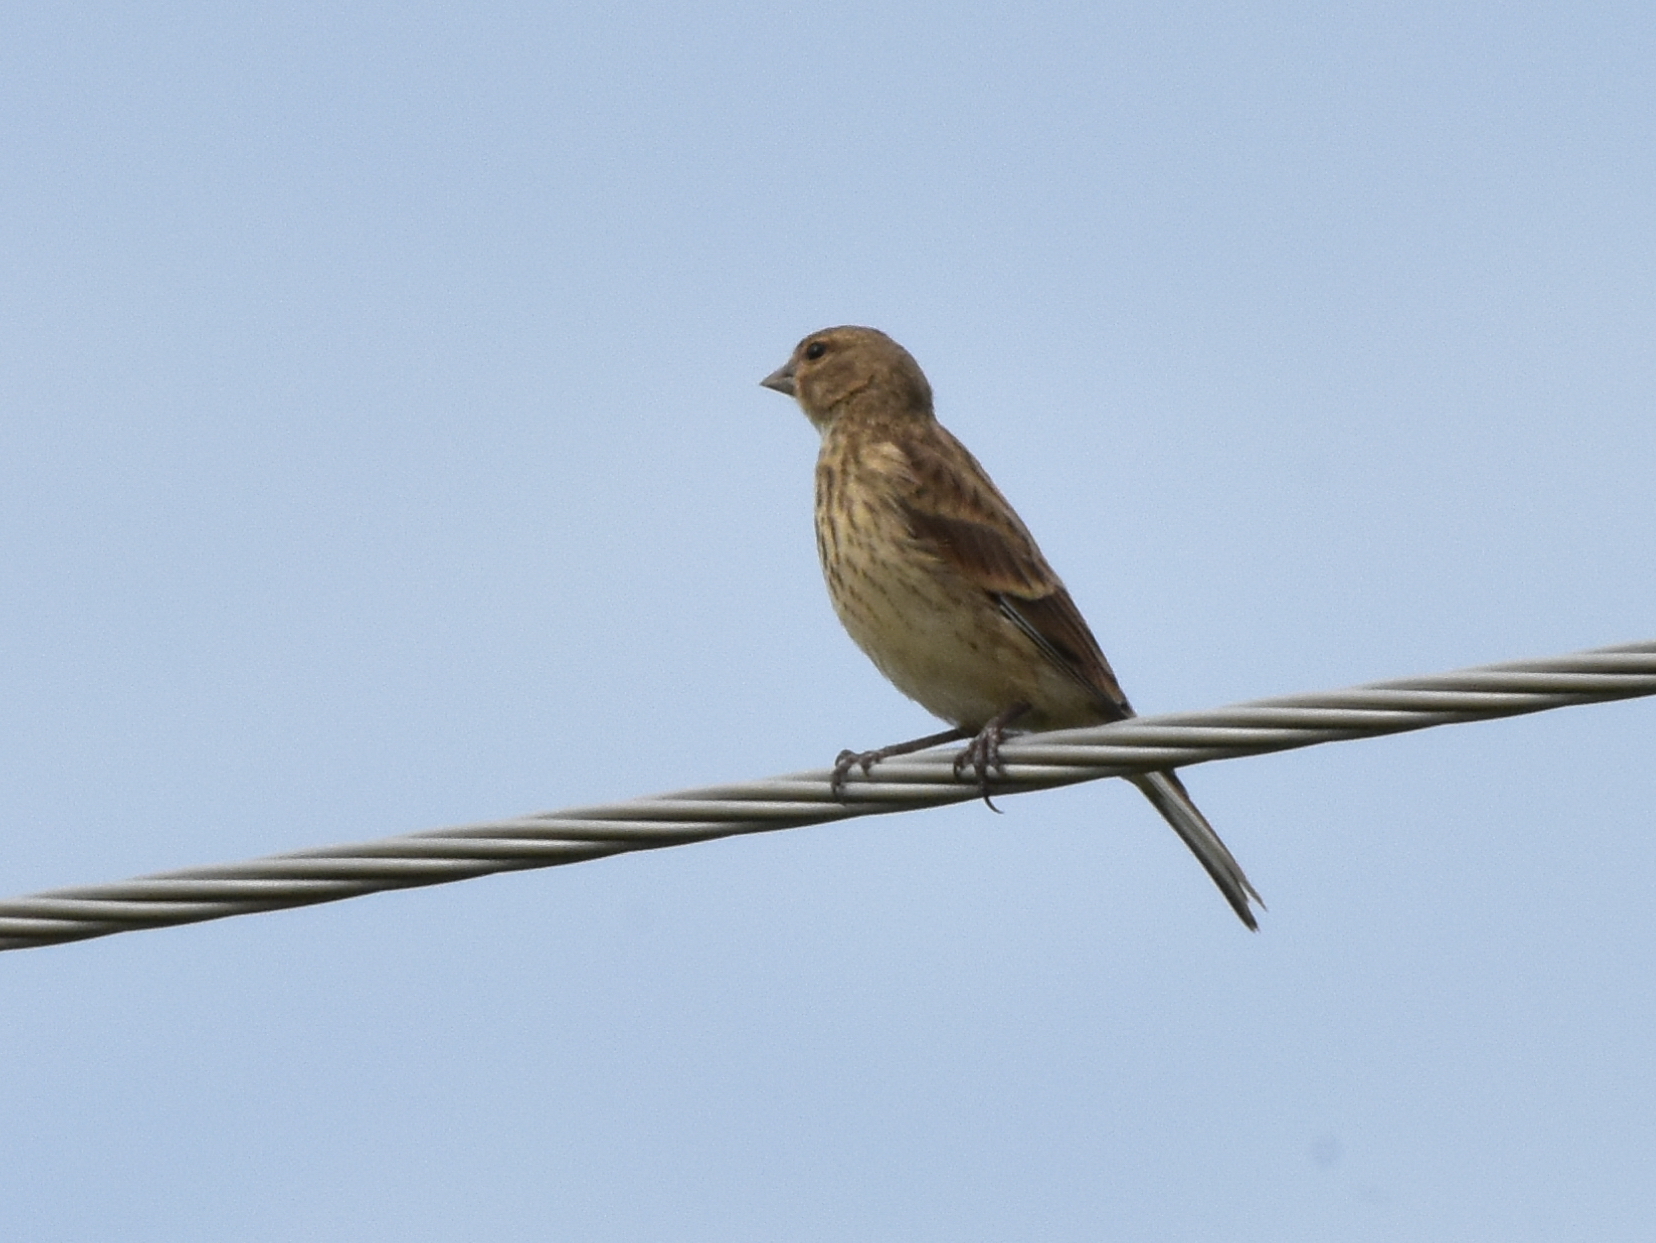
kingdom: Animalia
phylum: Chordata
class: Aves
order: Passeriformes
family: Fringillidae
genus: Linaria
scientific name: Linaria cannabina
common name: Common linnet
